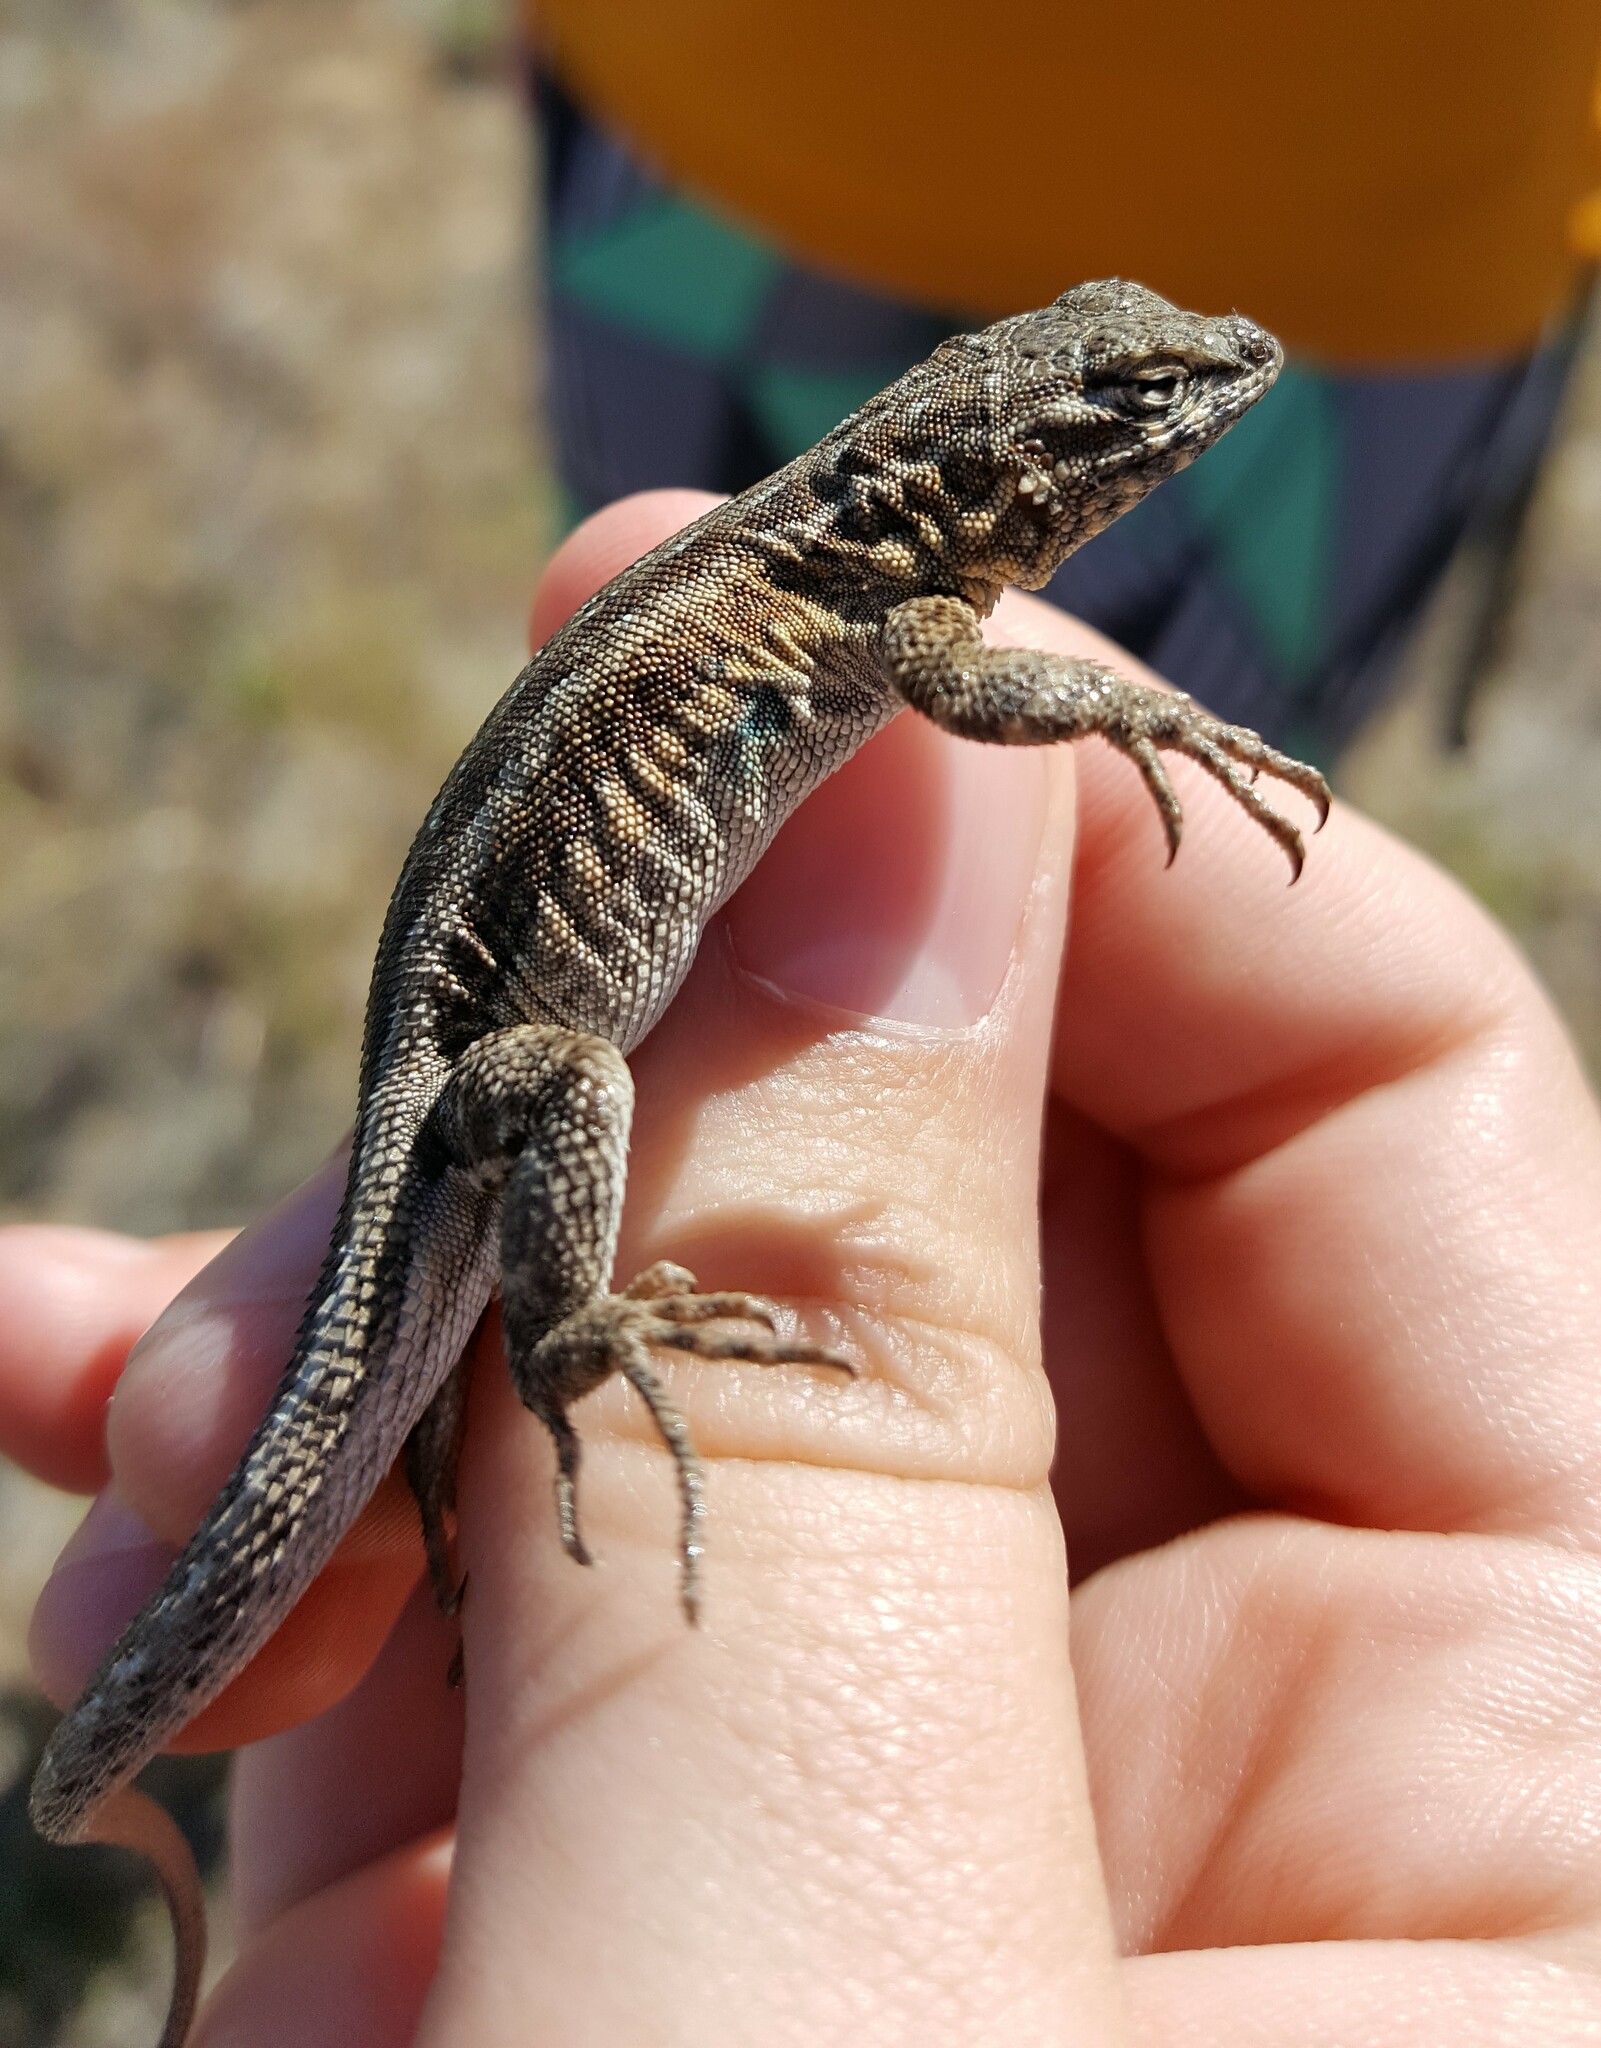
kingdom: Animalia
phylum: Chordata
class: Squamata
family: Phrynosomatidae
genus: Uta
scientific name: Uta stansburiana
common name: Side-blotched lizard
